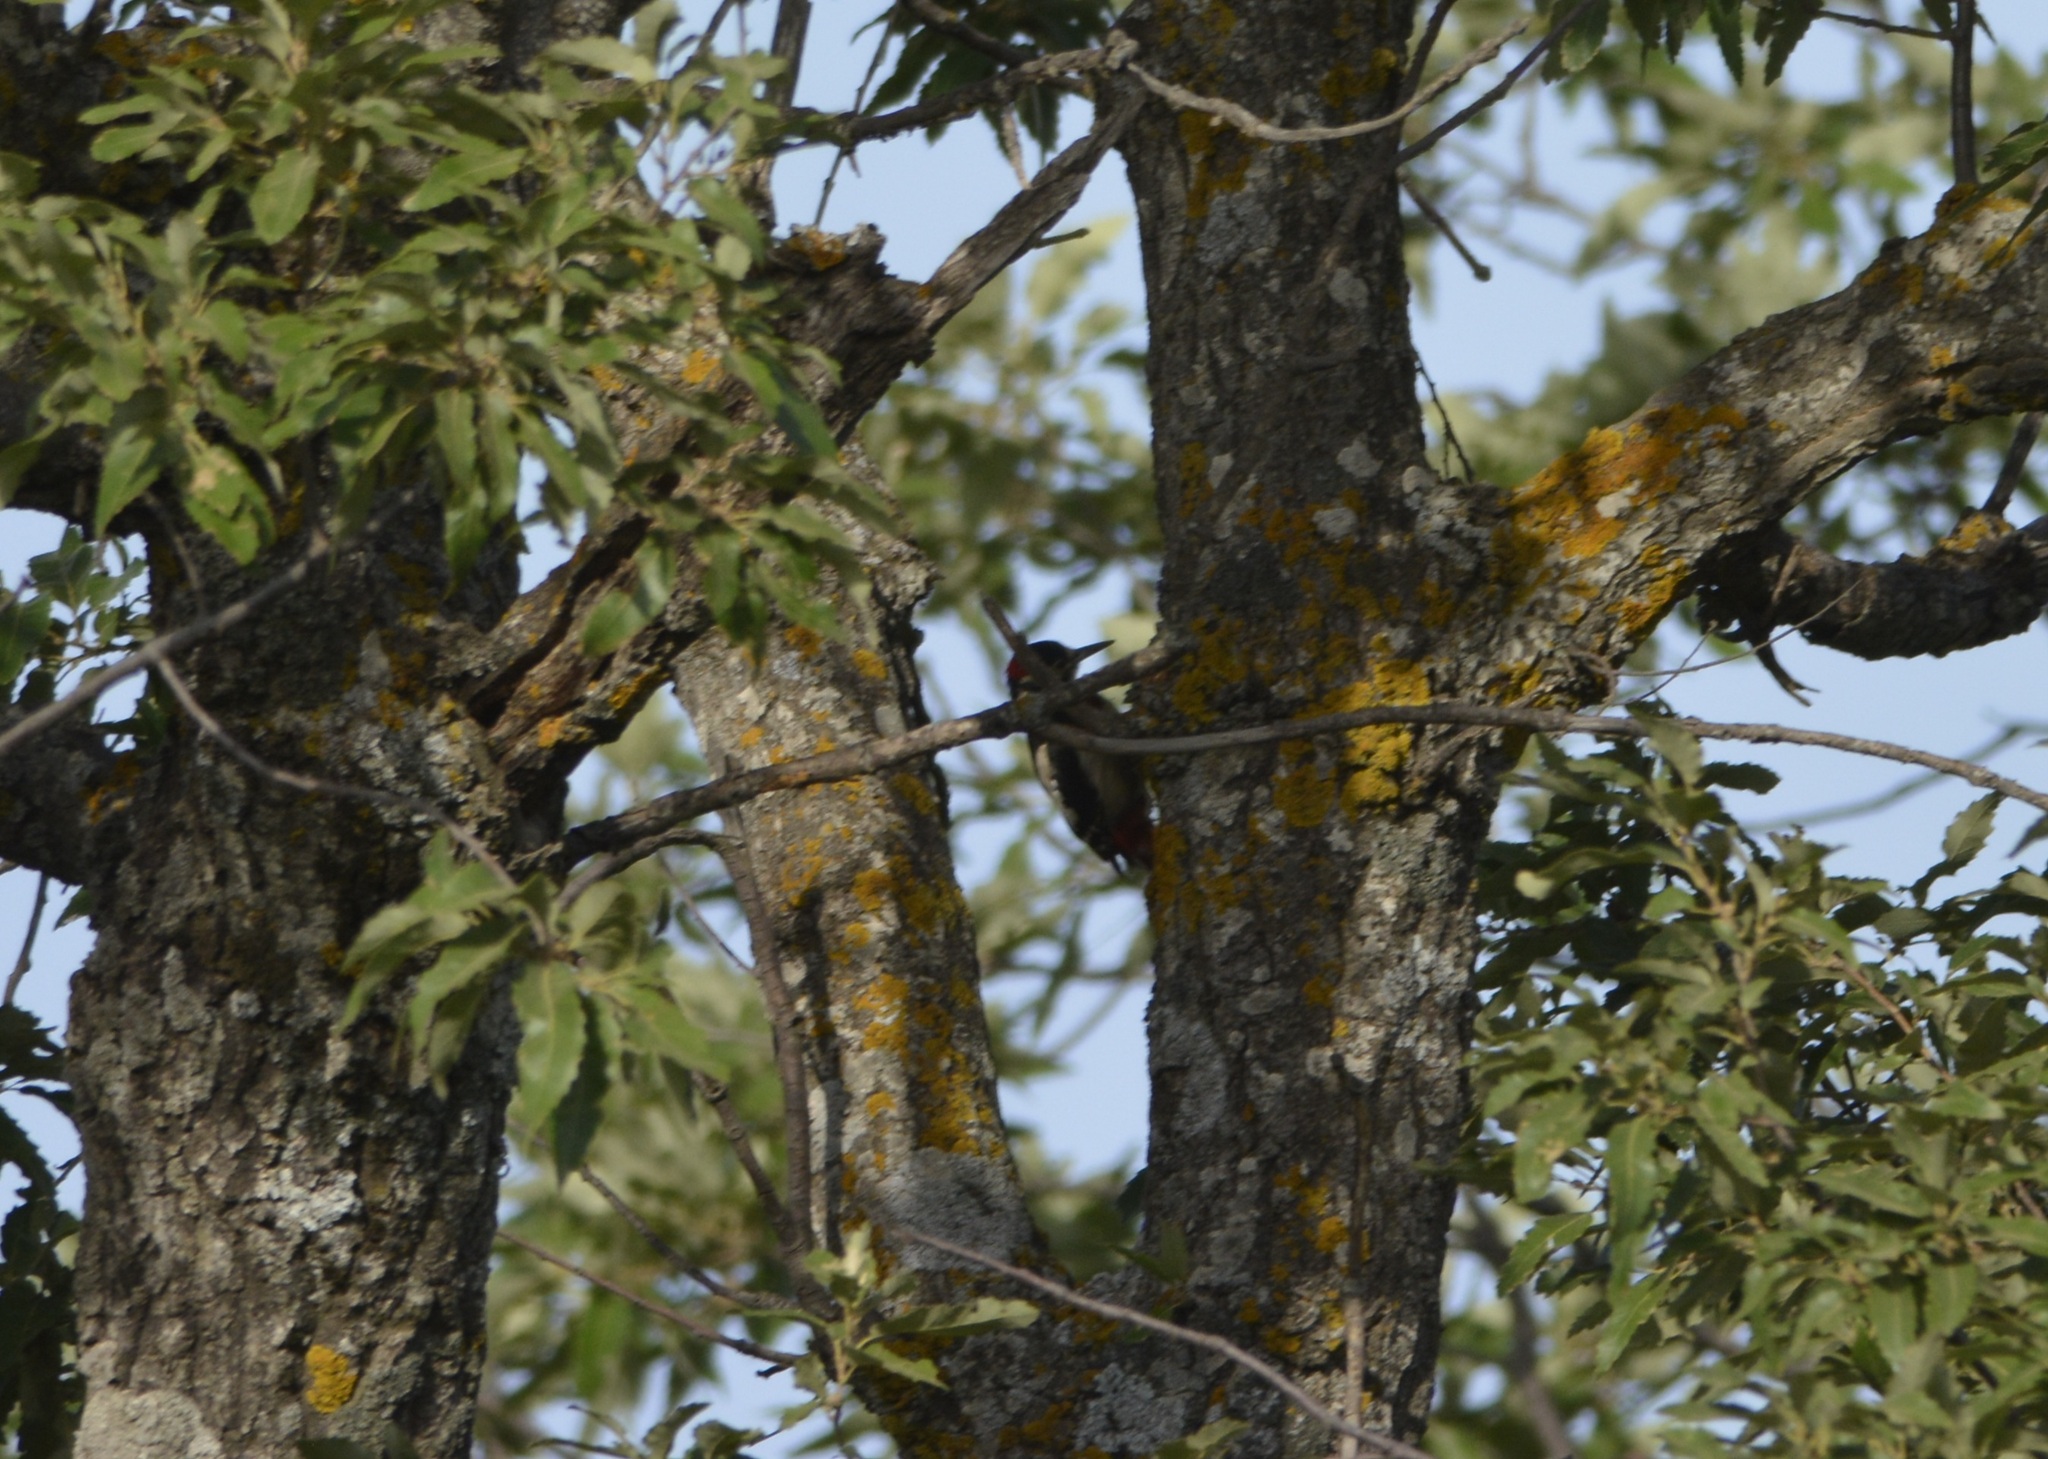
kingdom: Animalia
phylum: Chordata
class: Aves
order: Piciformes
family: Picidae
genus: Dendrocopos
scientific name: Dendrocopos major
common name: Great spotted woodpecker
